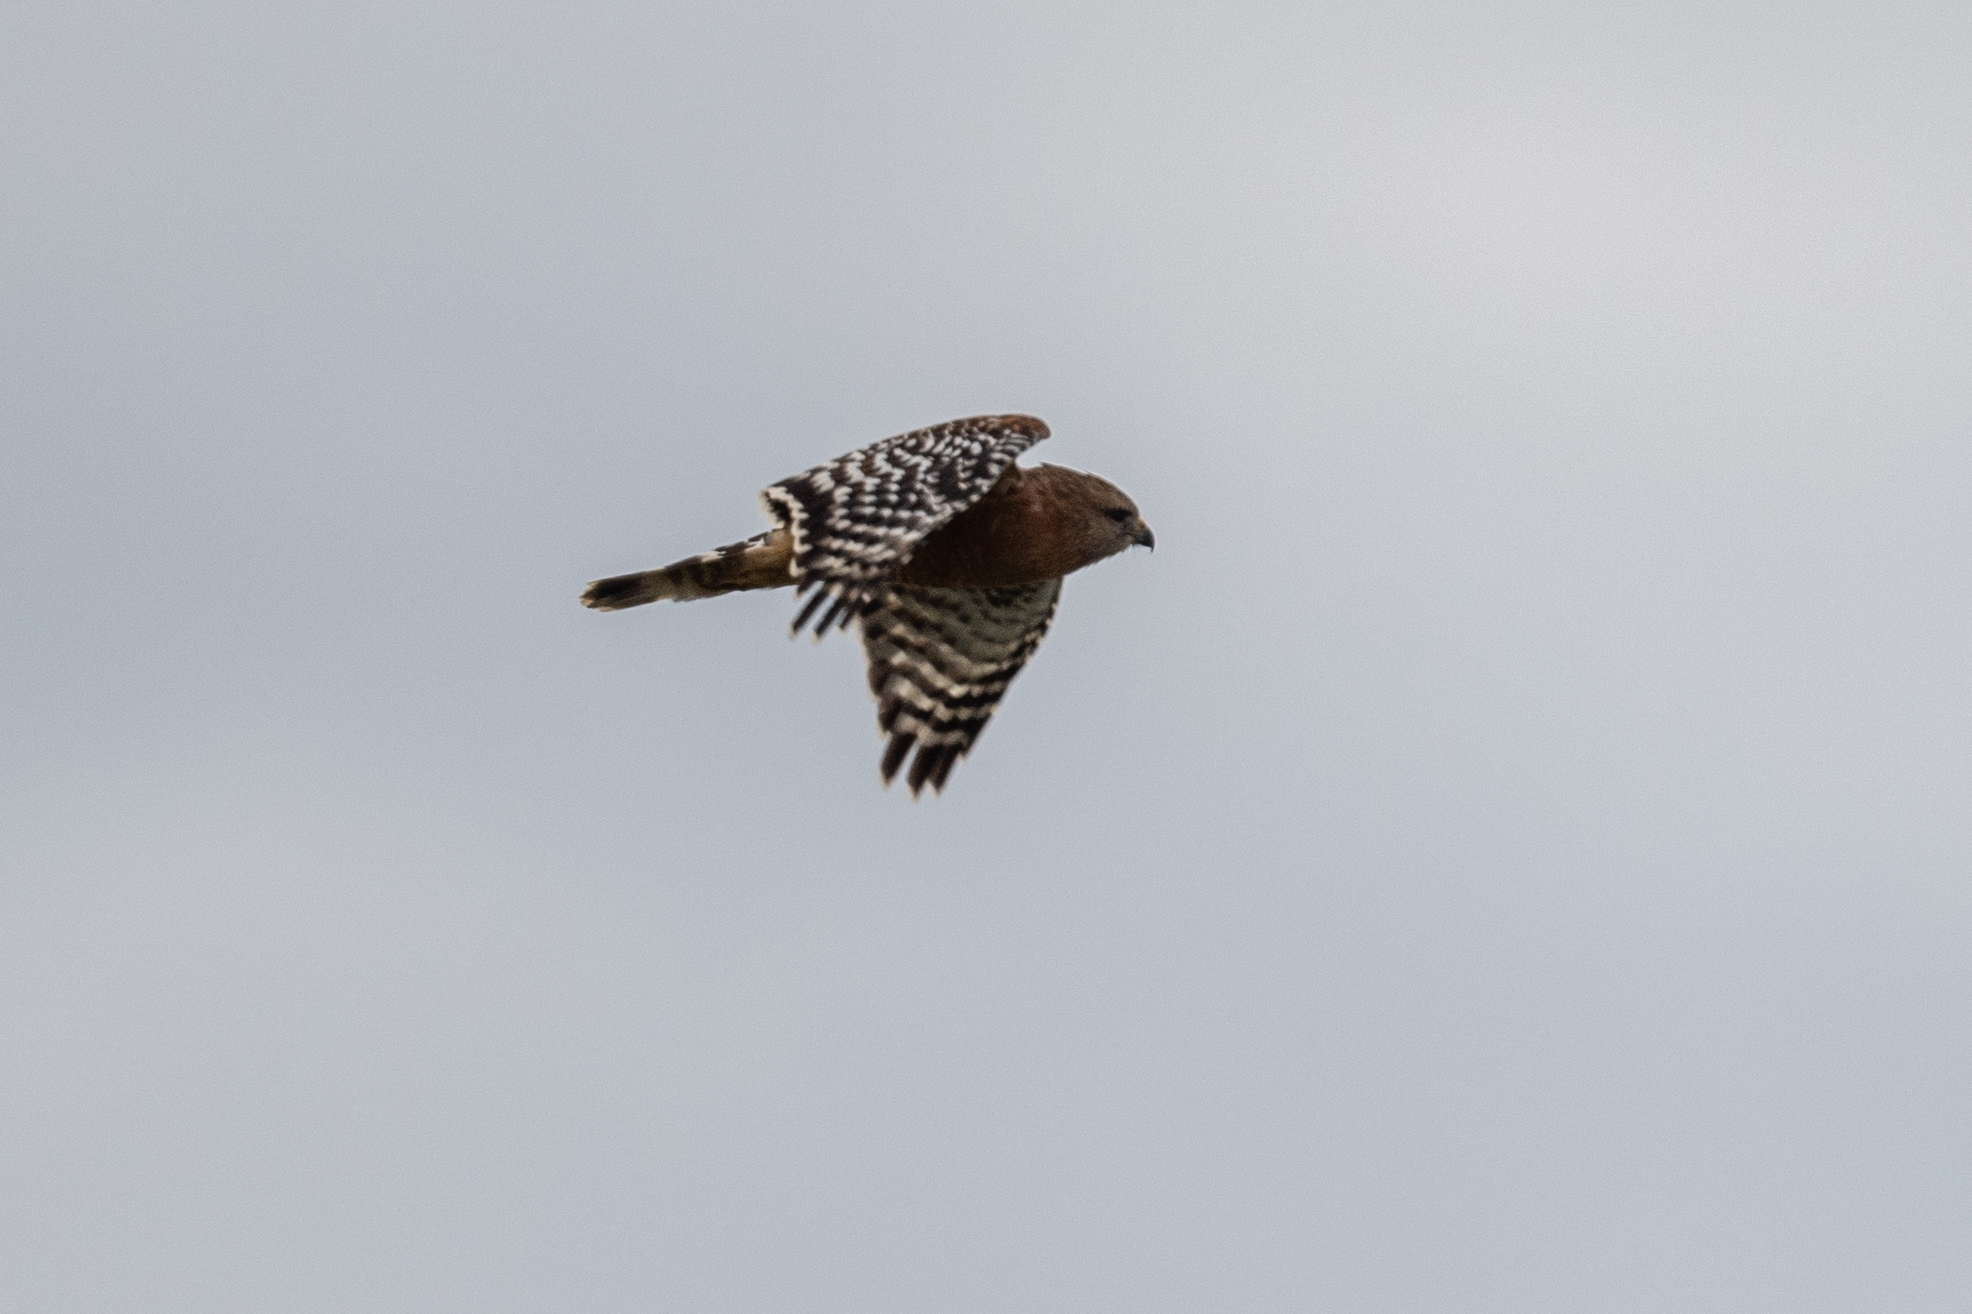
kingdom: Animalia
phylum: Chordata
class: Aves
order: Accipitriformes
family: Accipitridae
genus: Buteo
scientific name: Buteo lineatus
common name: Red-shouldered hawk
